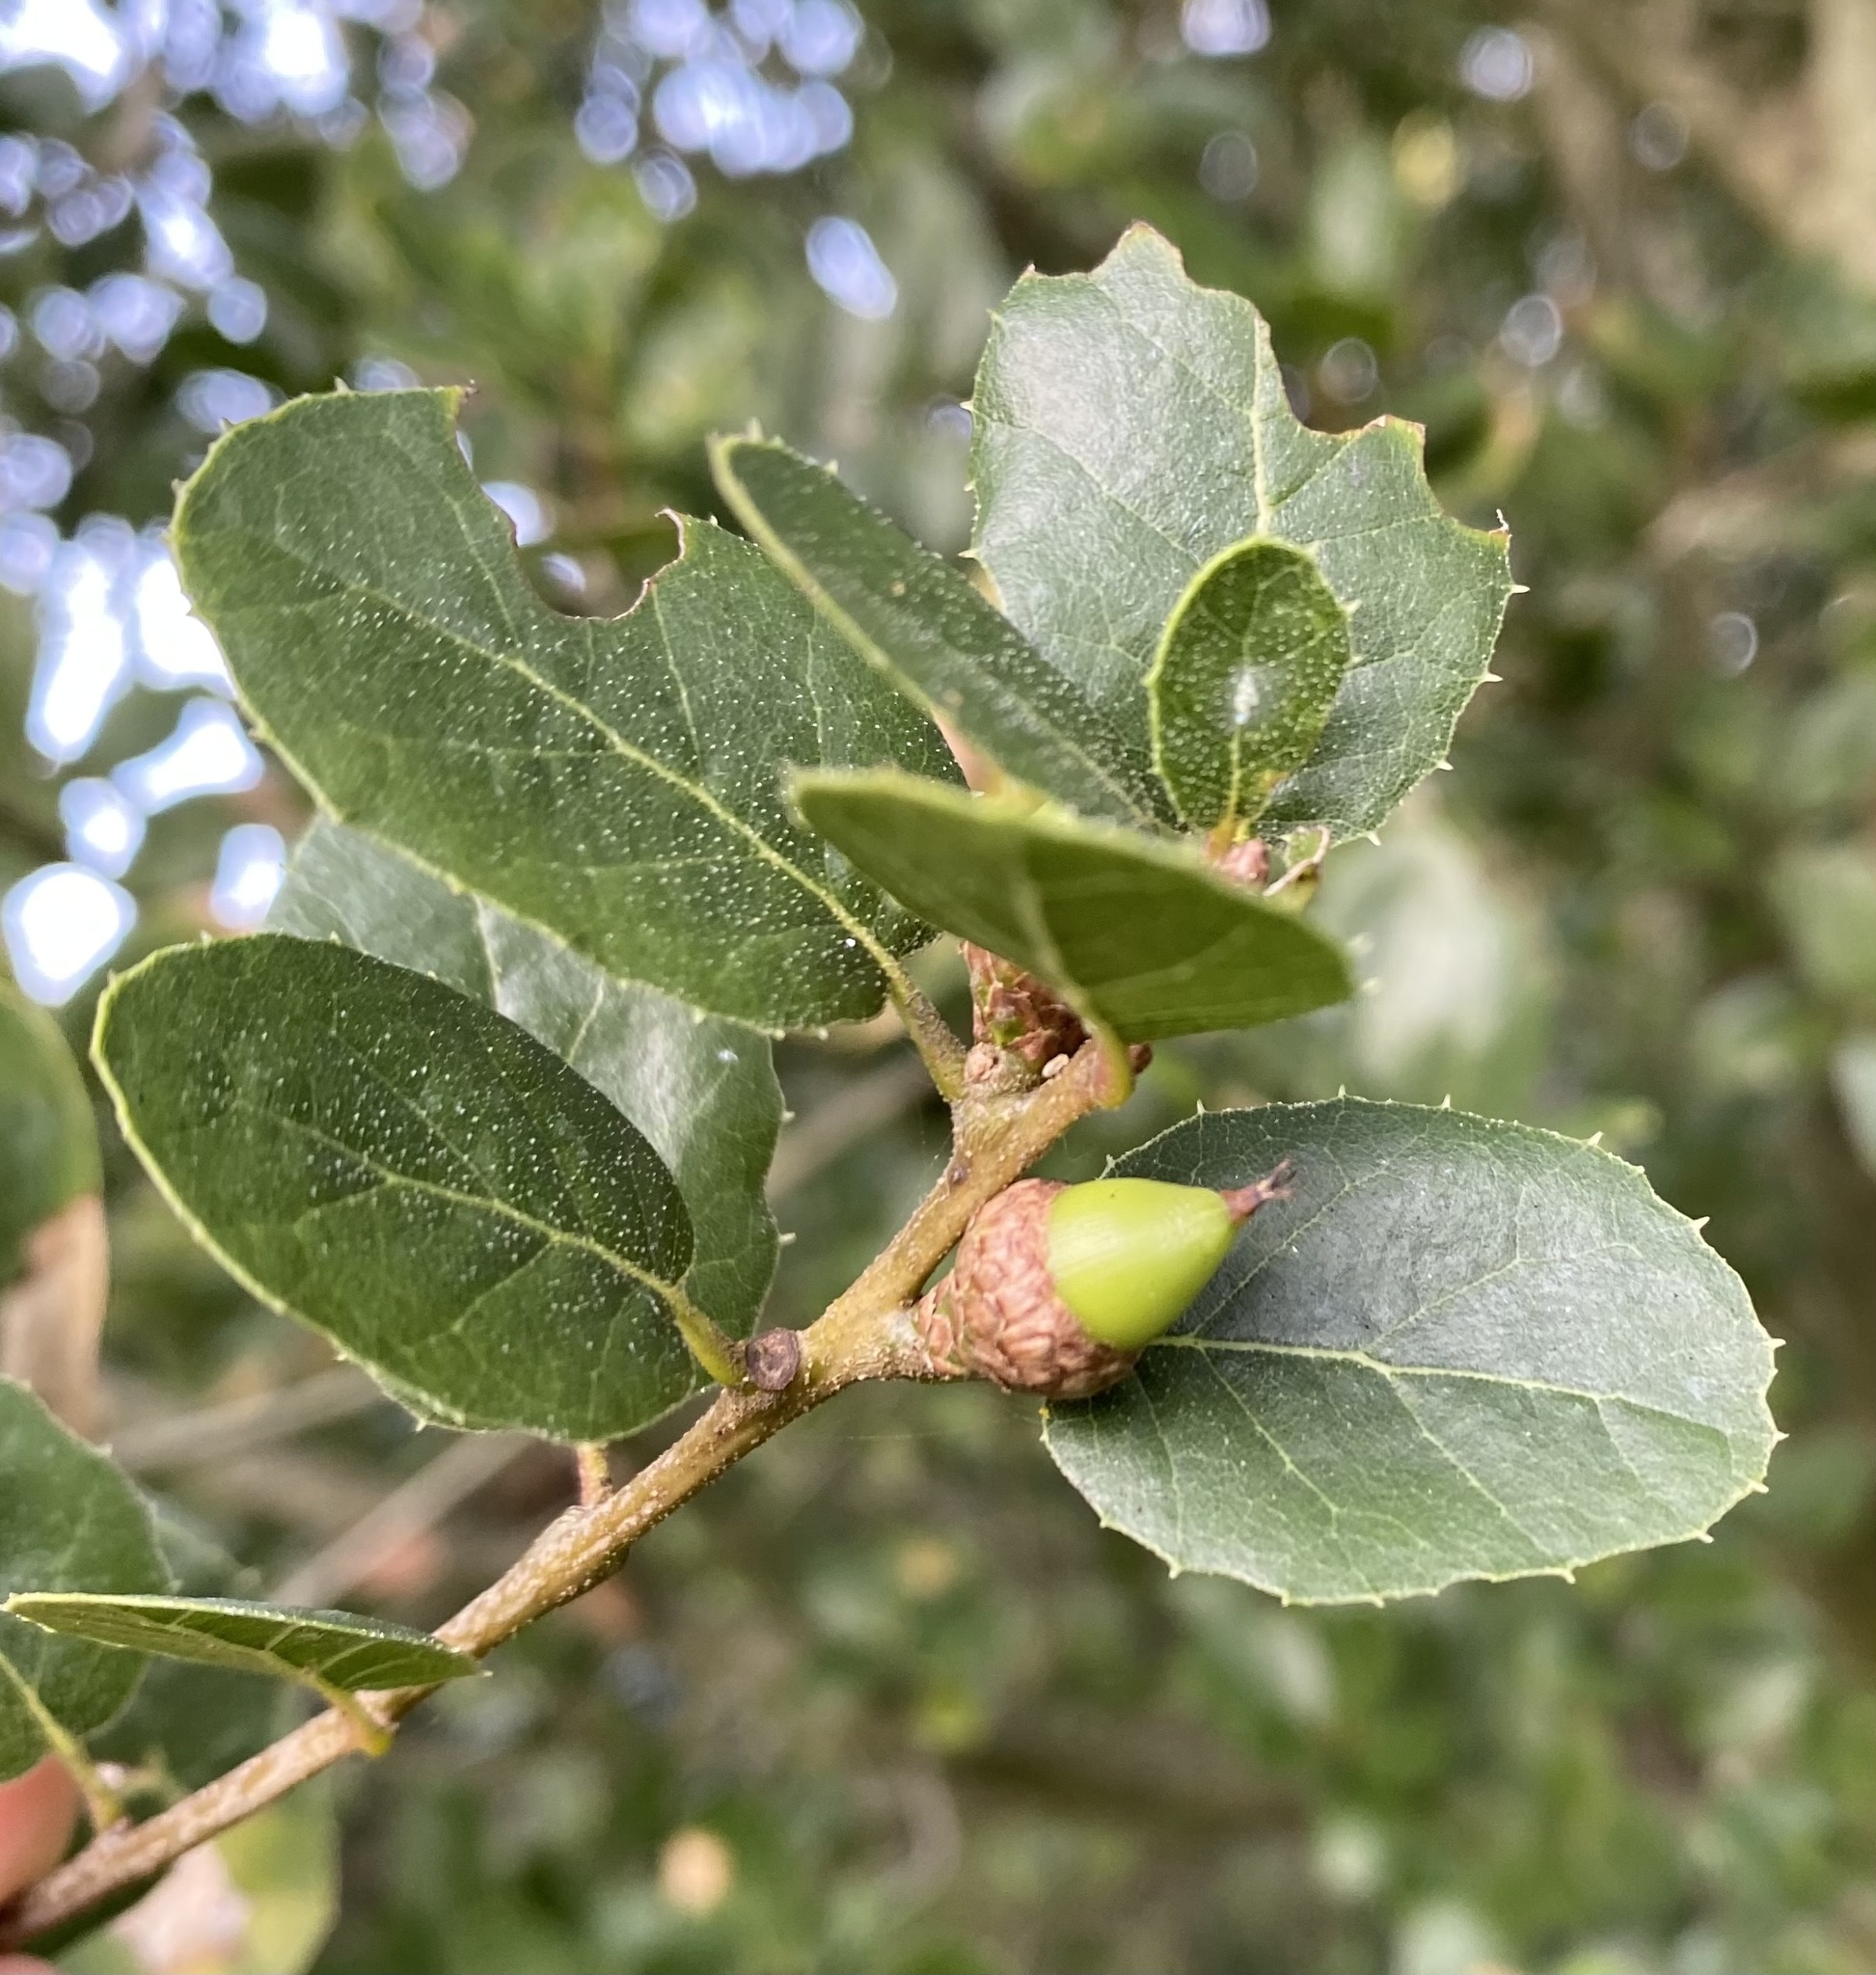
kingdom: Plantae
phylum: Tracheophyta
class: Magnoliopsida
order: Fagales
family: Fagaceae
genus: Quercus
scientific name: Quercus wislizeni
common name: Interior live oak
